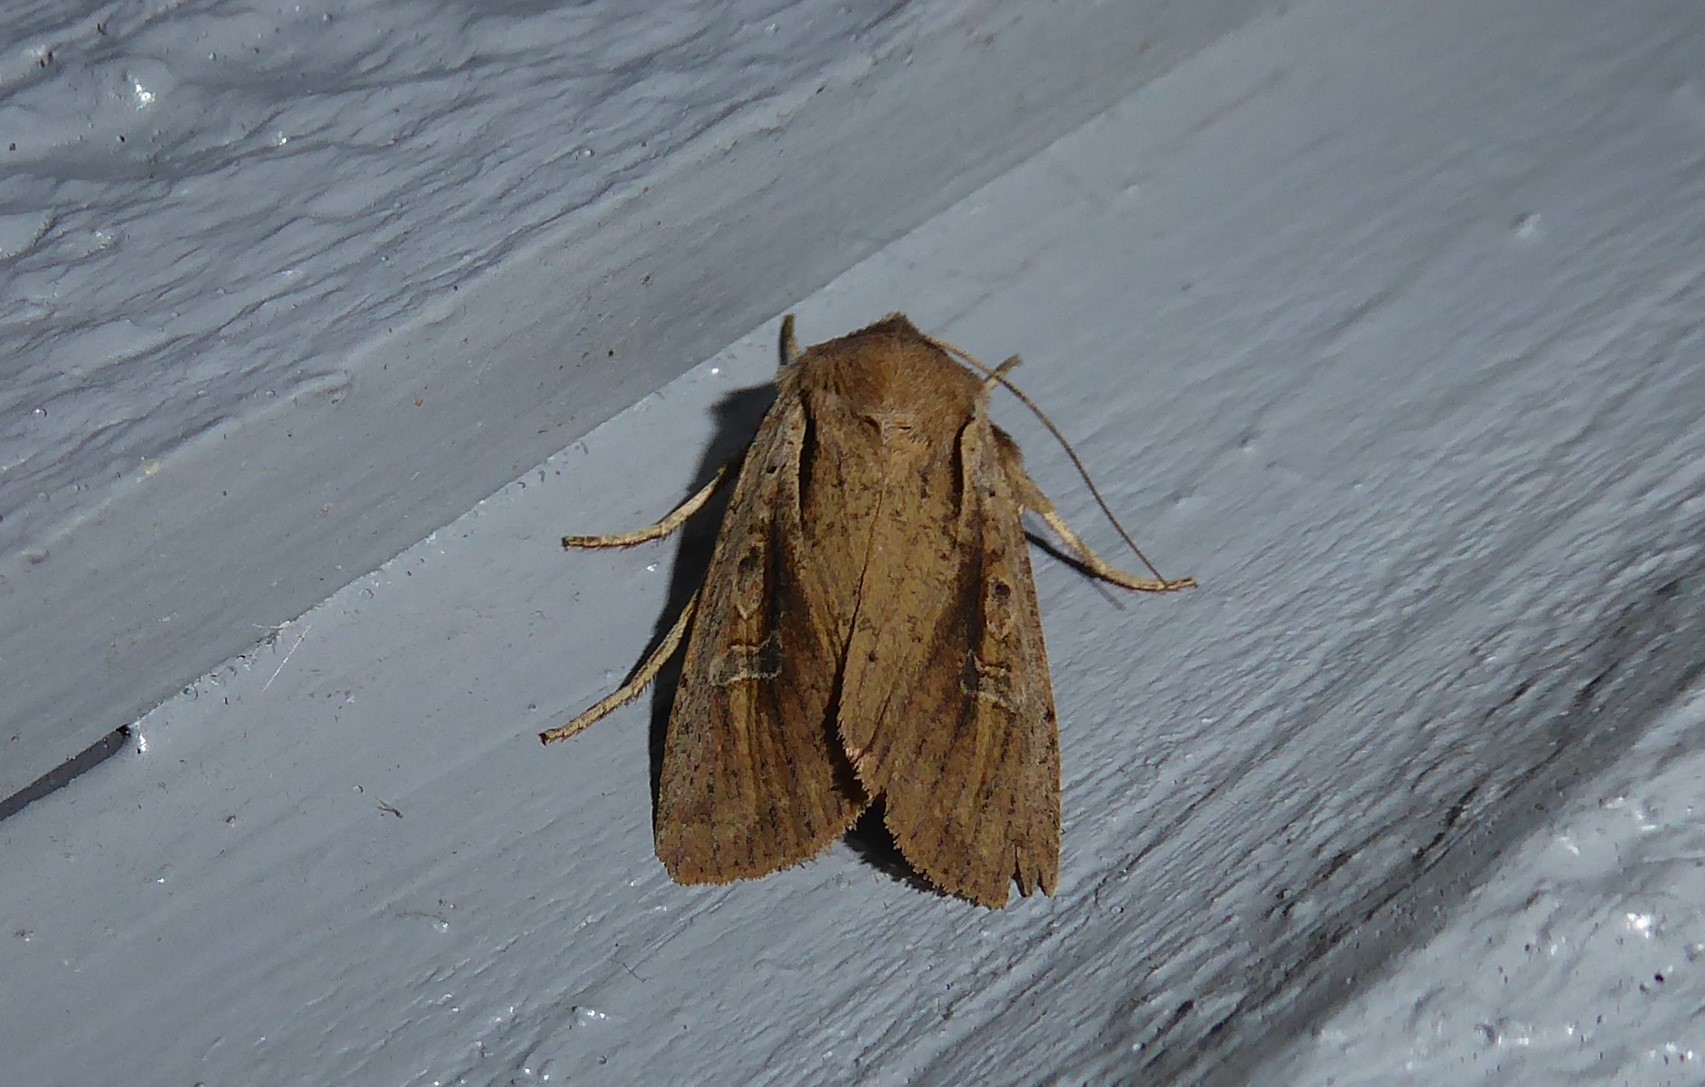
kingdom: Animalia
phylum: Arthropoda
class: Insecta
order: Lepidoptera
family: Noctuidae
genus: Ichneutica
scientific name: Ichneutica atristriga
